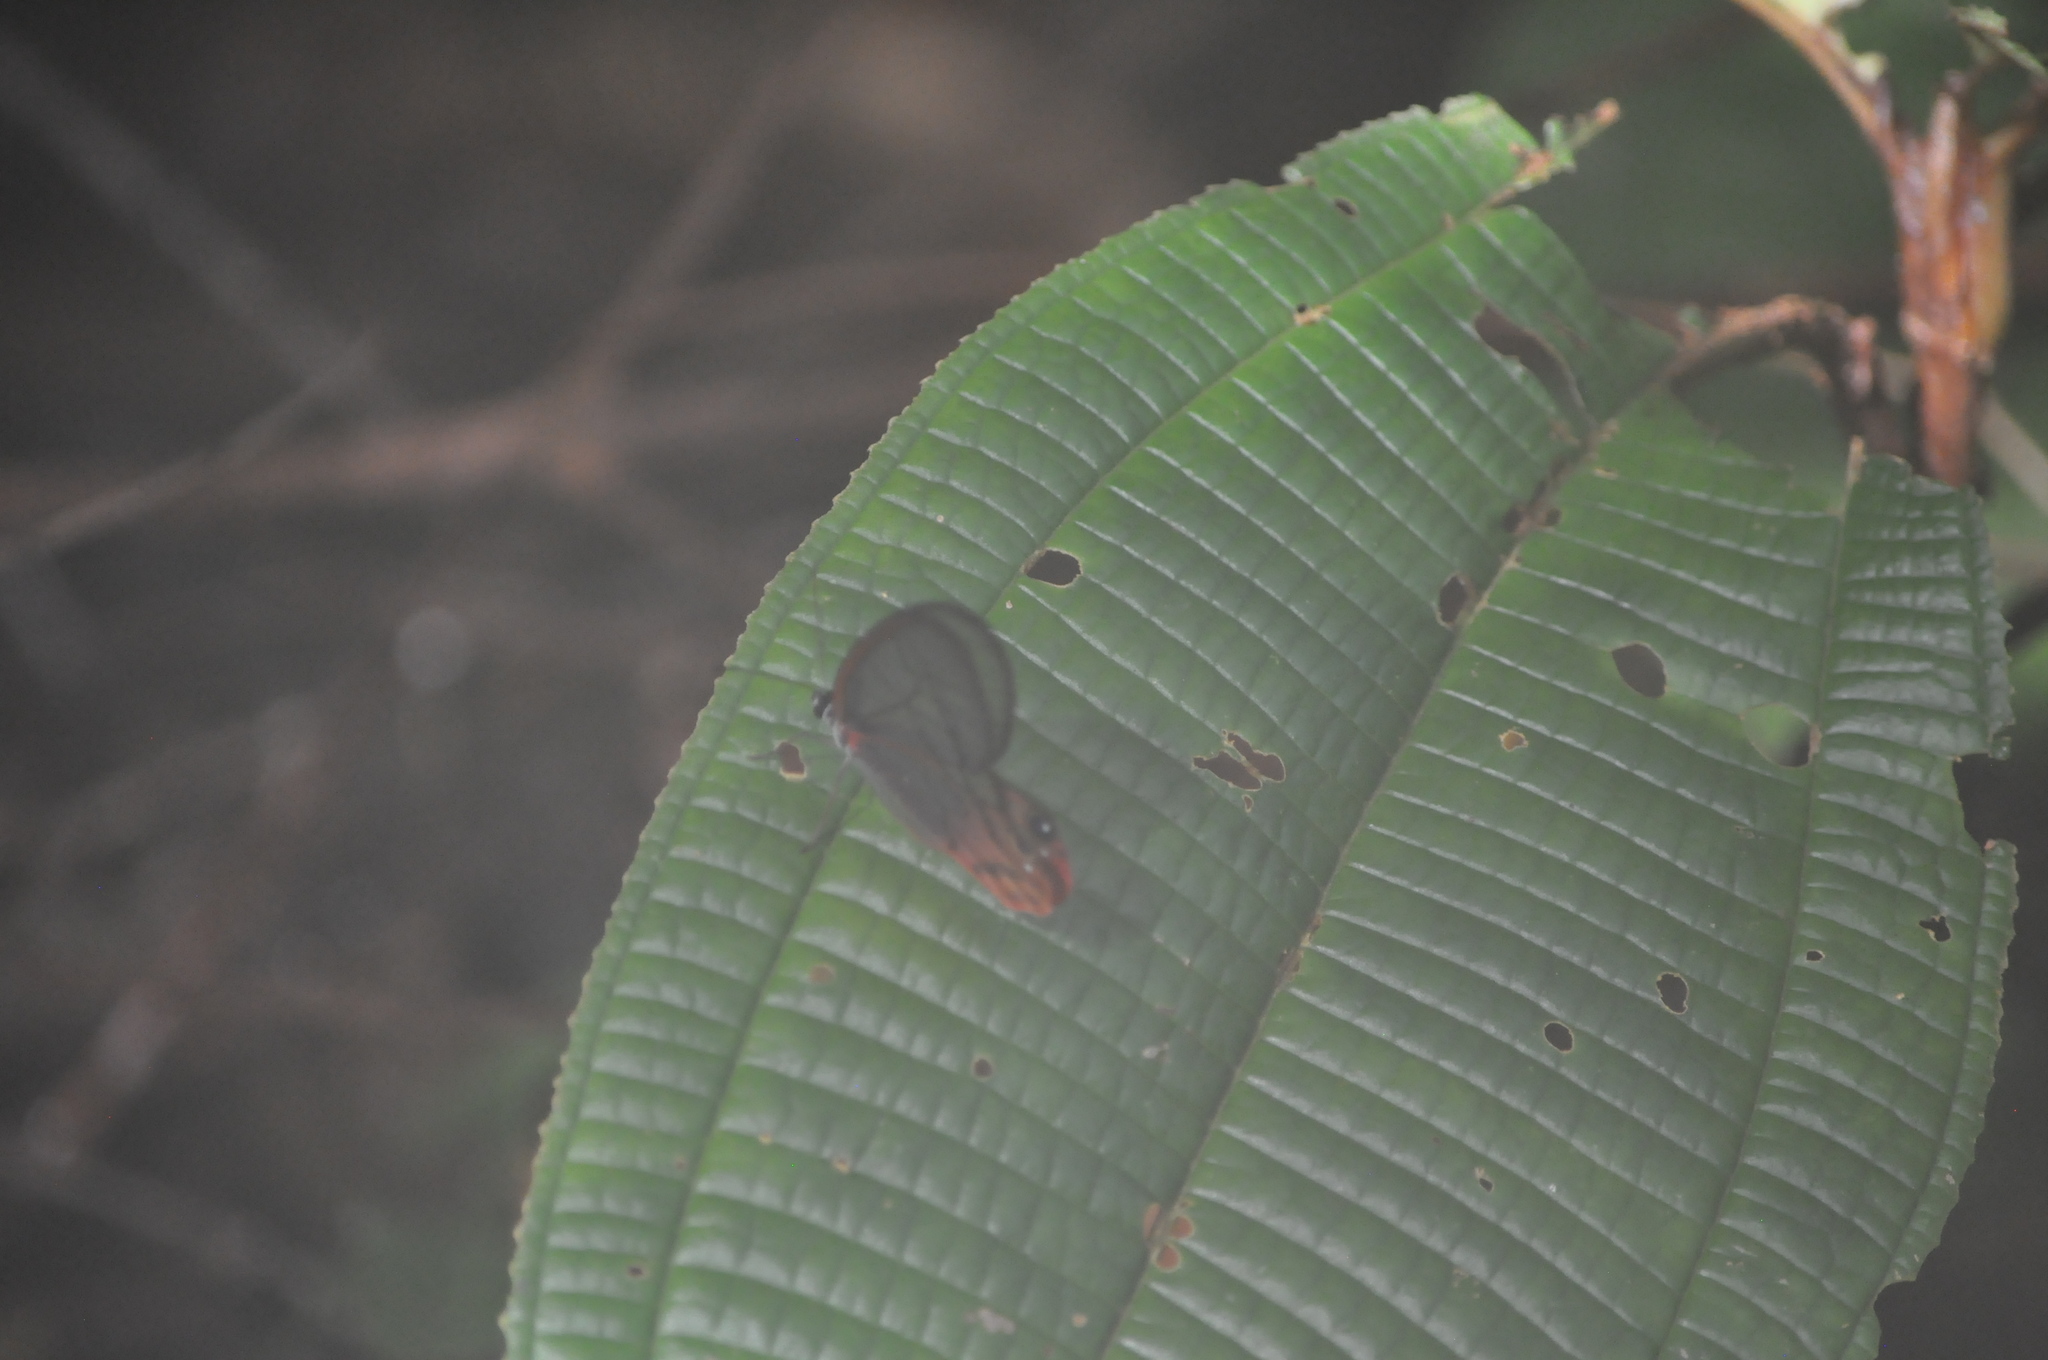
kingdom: Animalia
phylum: Arthropoda
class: Insecta
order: Lepidoptera
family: Nymphalidae
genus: Cithaerias
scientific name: Cithaerias pireta
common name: Rusted clearwing-satyr
